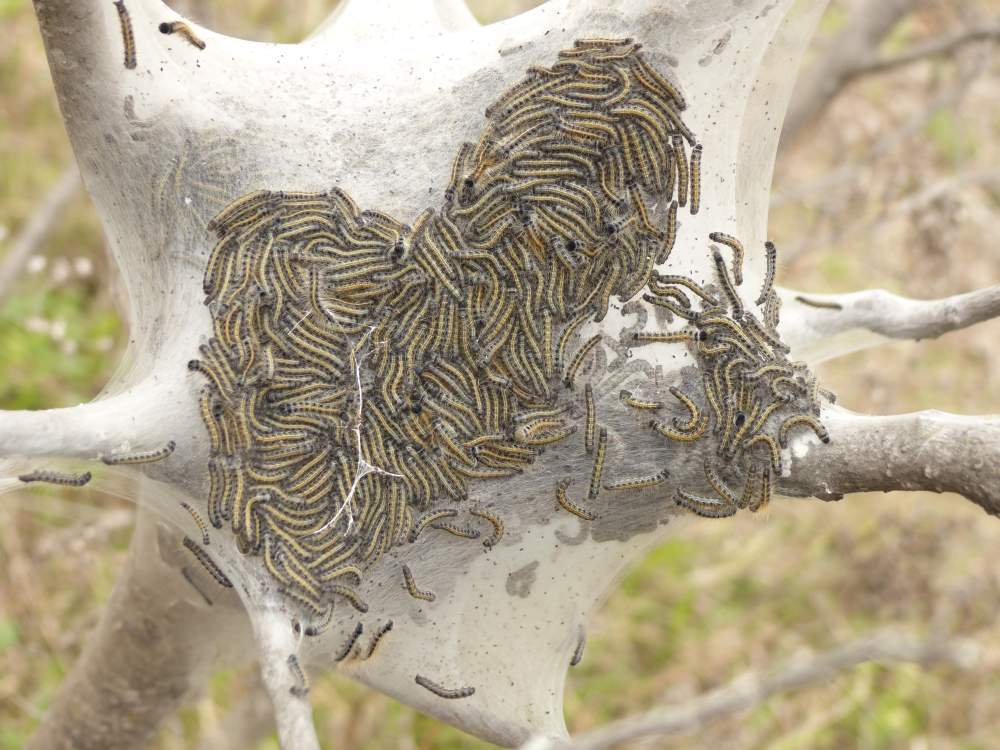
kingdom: Animalia
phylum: Arthropoda
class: Insecta
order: Lepidoptera
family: Lasiocampidae
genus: Malacosoma
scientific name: Malacosoma americana
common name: Eastern tent caterpillar moth
